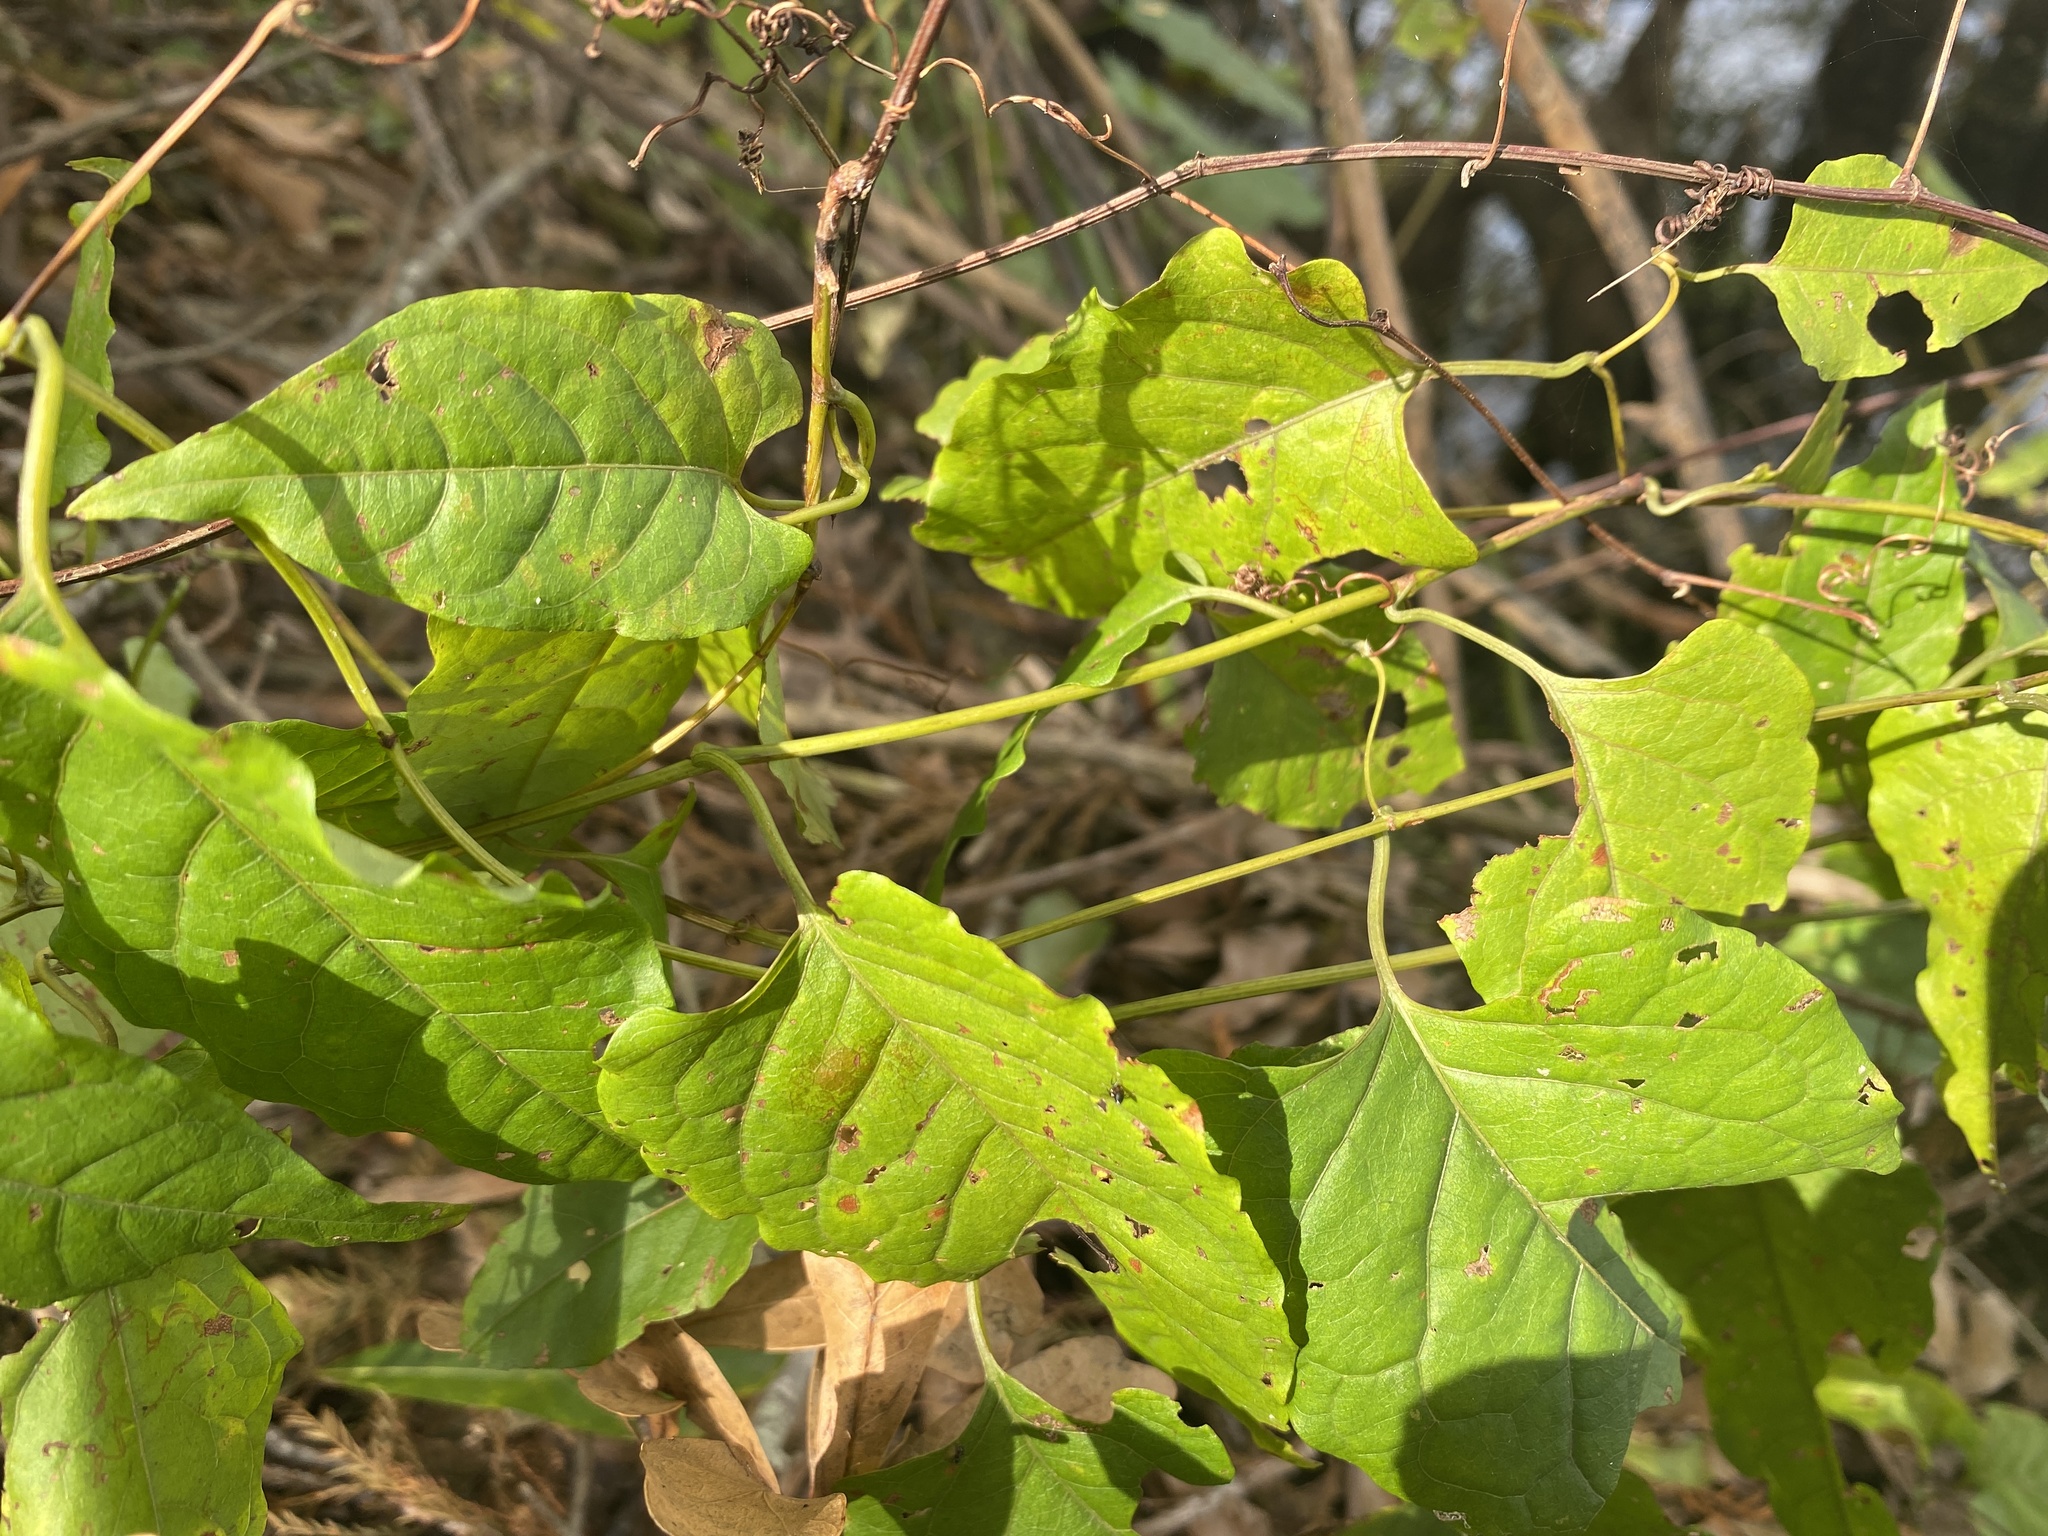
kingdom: Plantae
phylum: Tracheophyta
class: Magnoliopsida
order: Caryophyllales
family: Polygonaceae
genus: Brunnichia
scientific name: Brunnichia ovata
